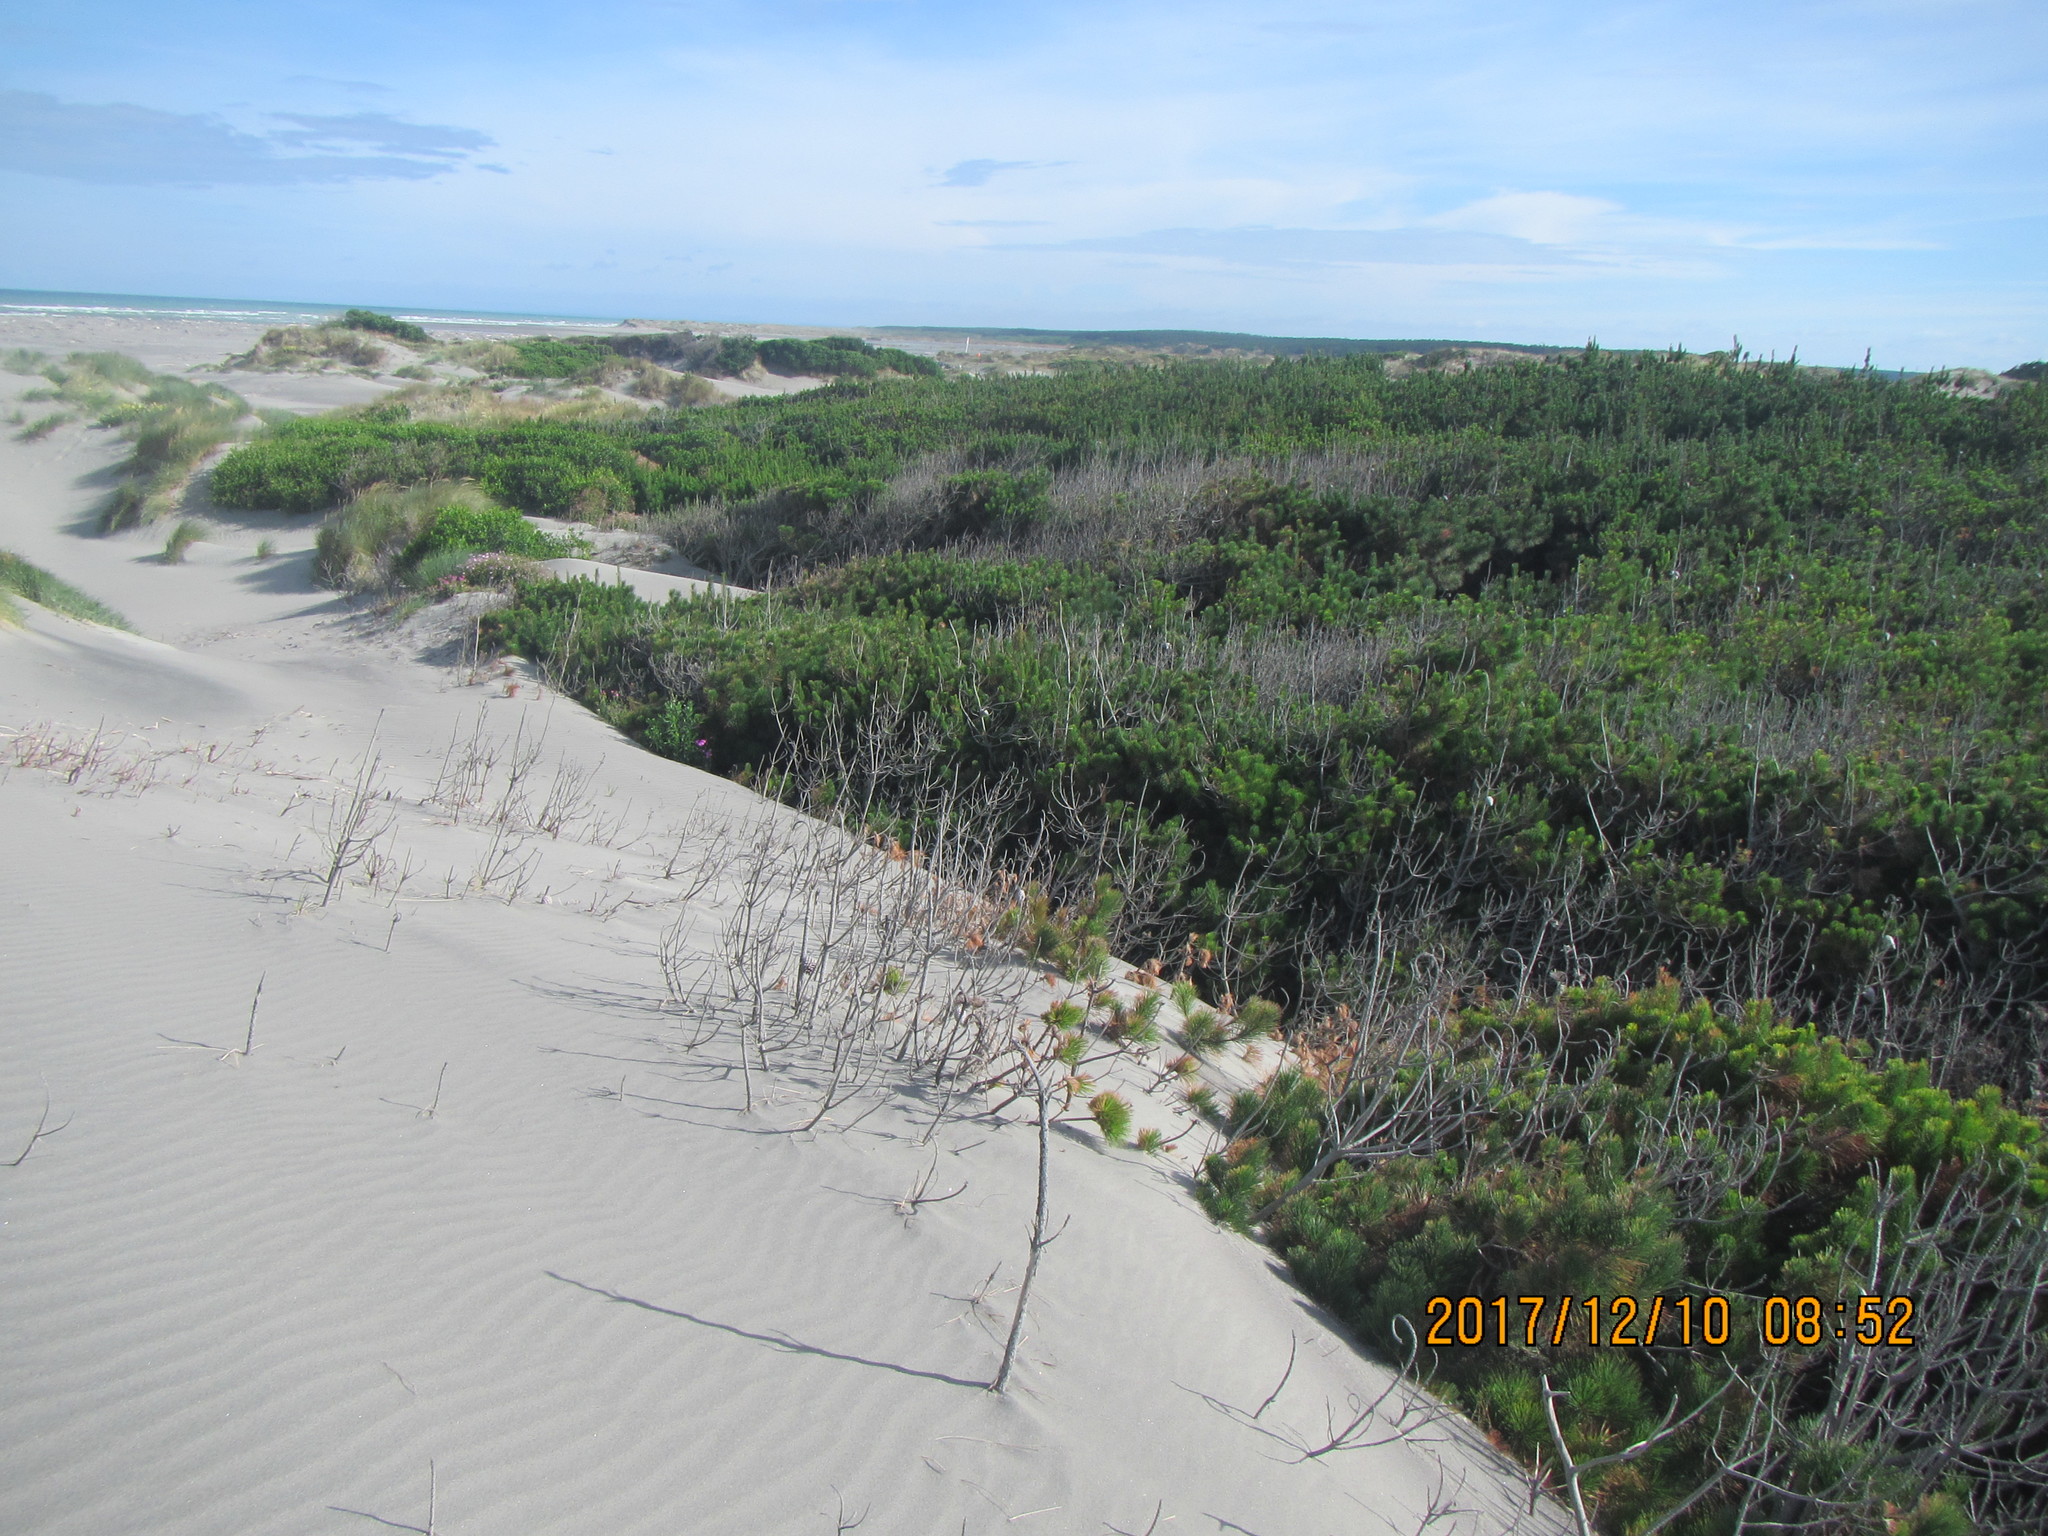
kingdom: Plantae
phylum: Tracheophyta
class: Pinopsida
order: Pinales
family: Pinaceae
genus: Pinus
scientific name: Pinus radiata
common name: Monterey pine
